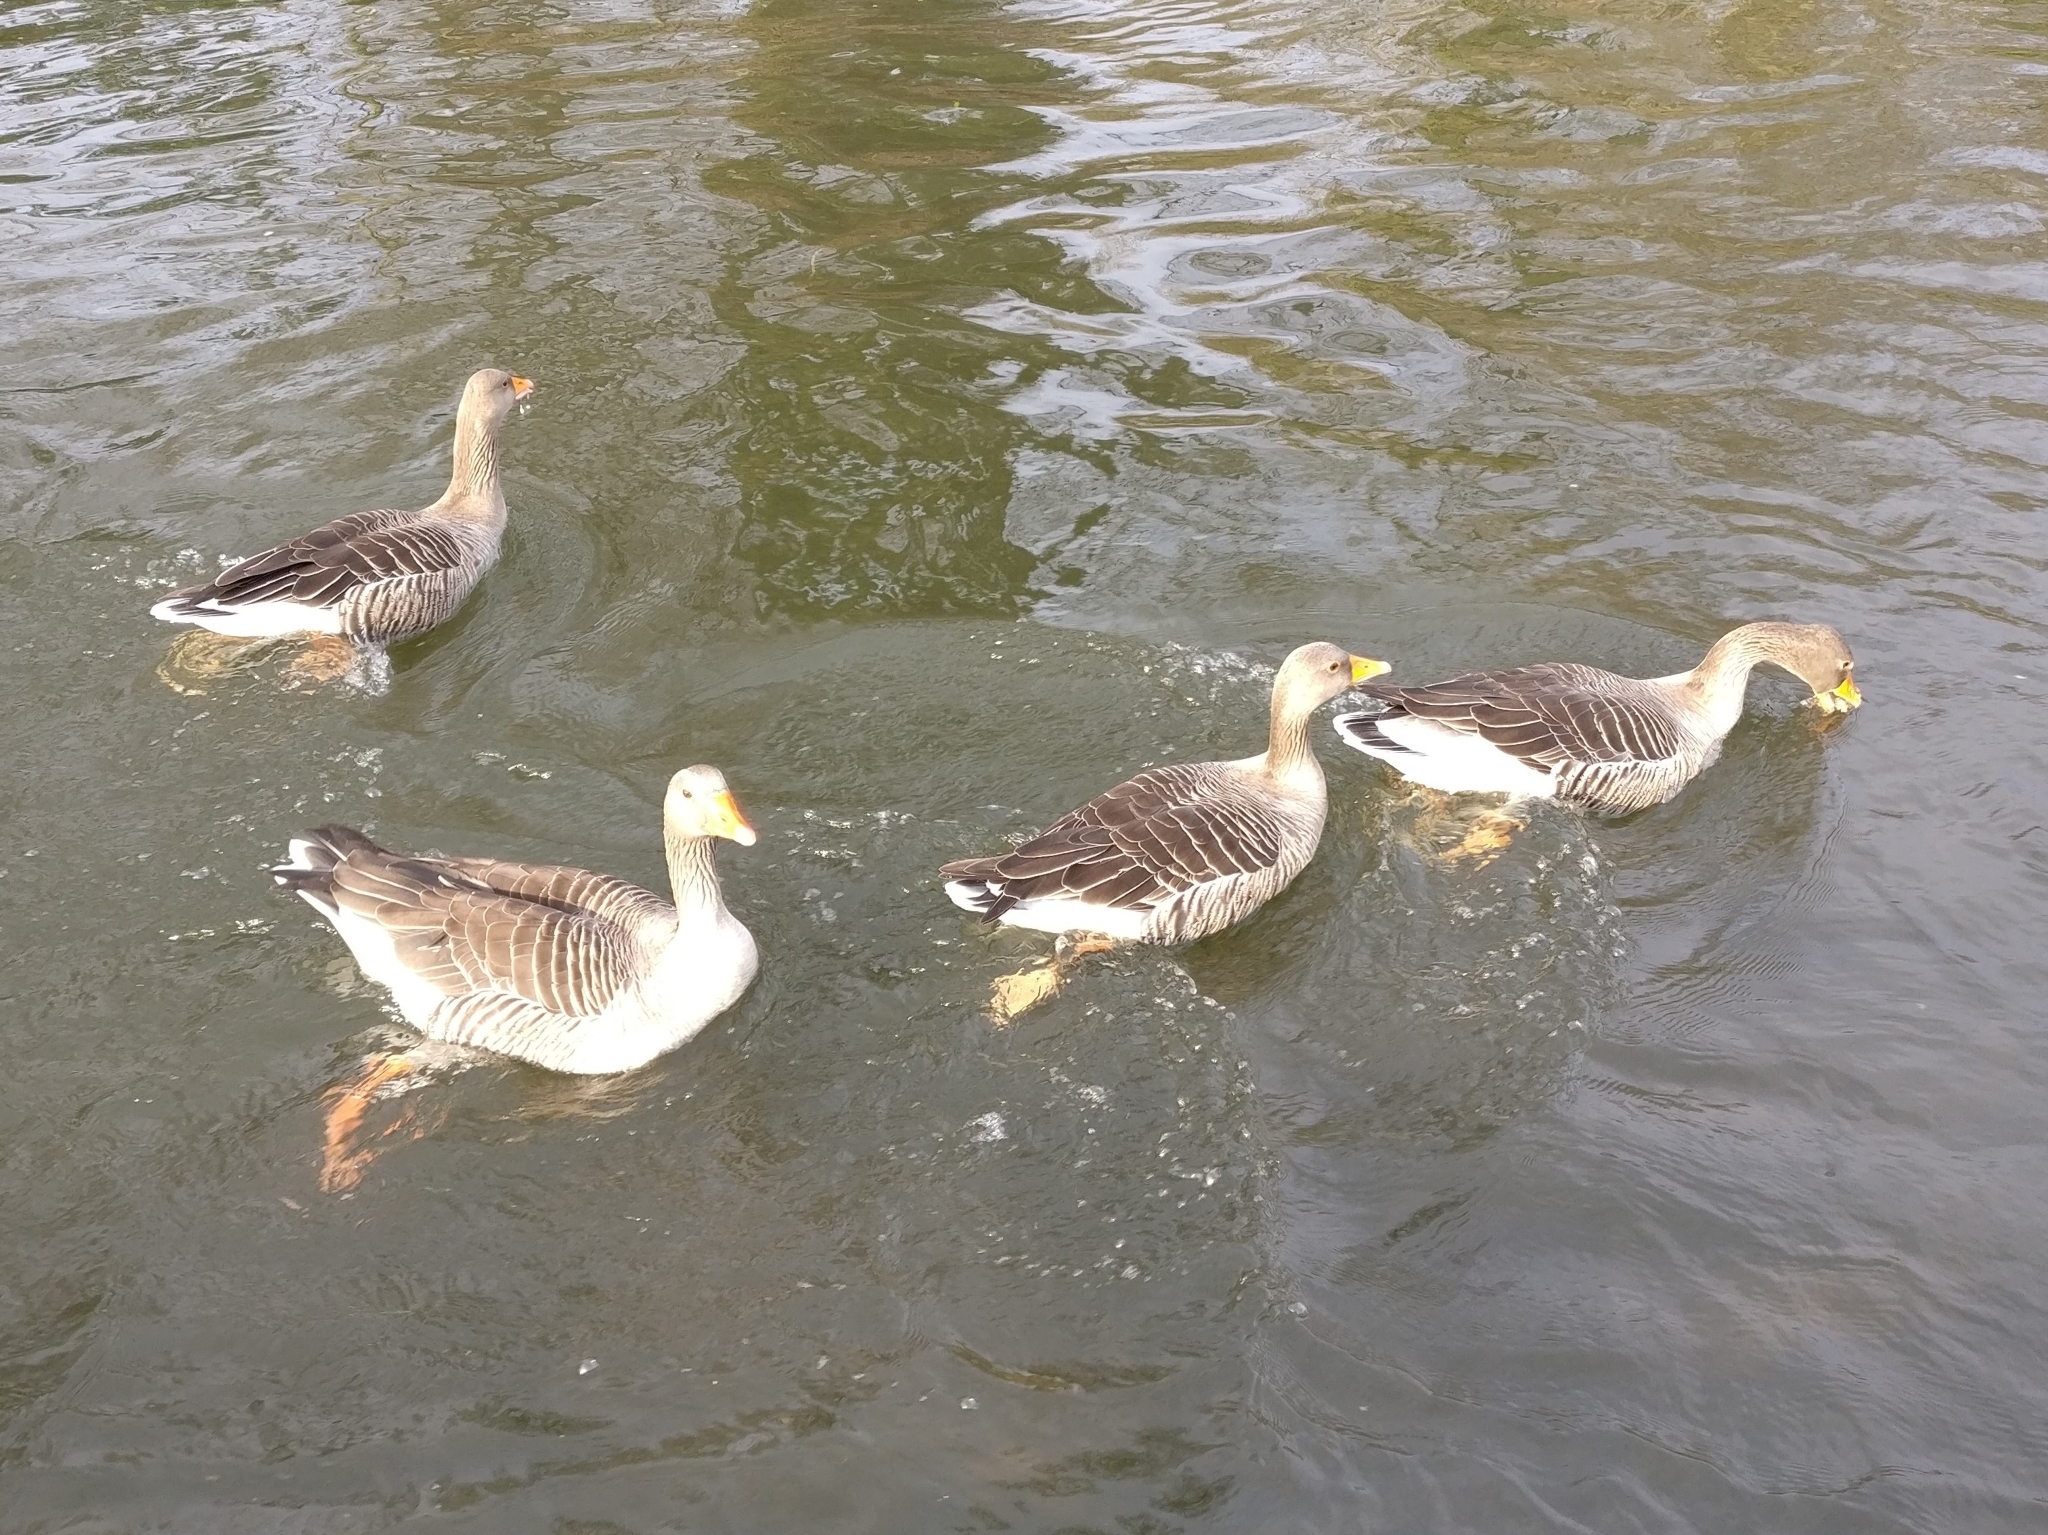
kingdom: Animalia
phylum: Chordata
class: Aves
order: Anseriformes
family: Anatidae
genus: Anser
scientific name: Anser anser
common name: Greylag goose
